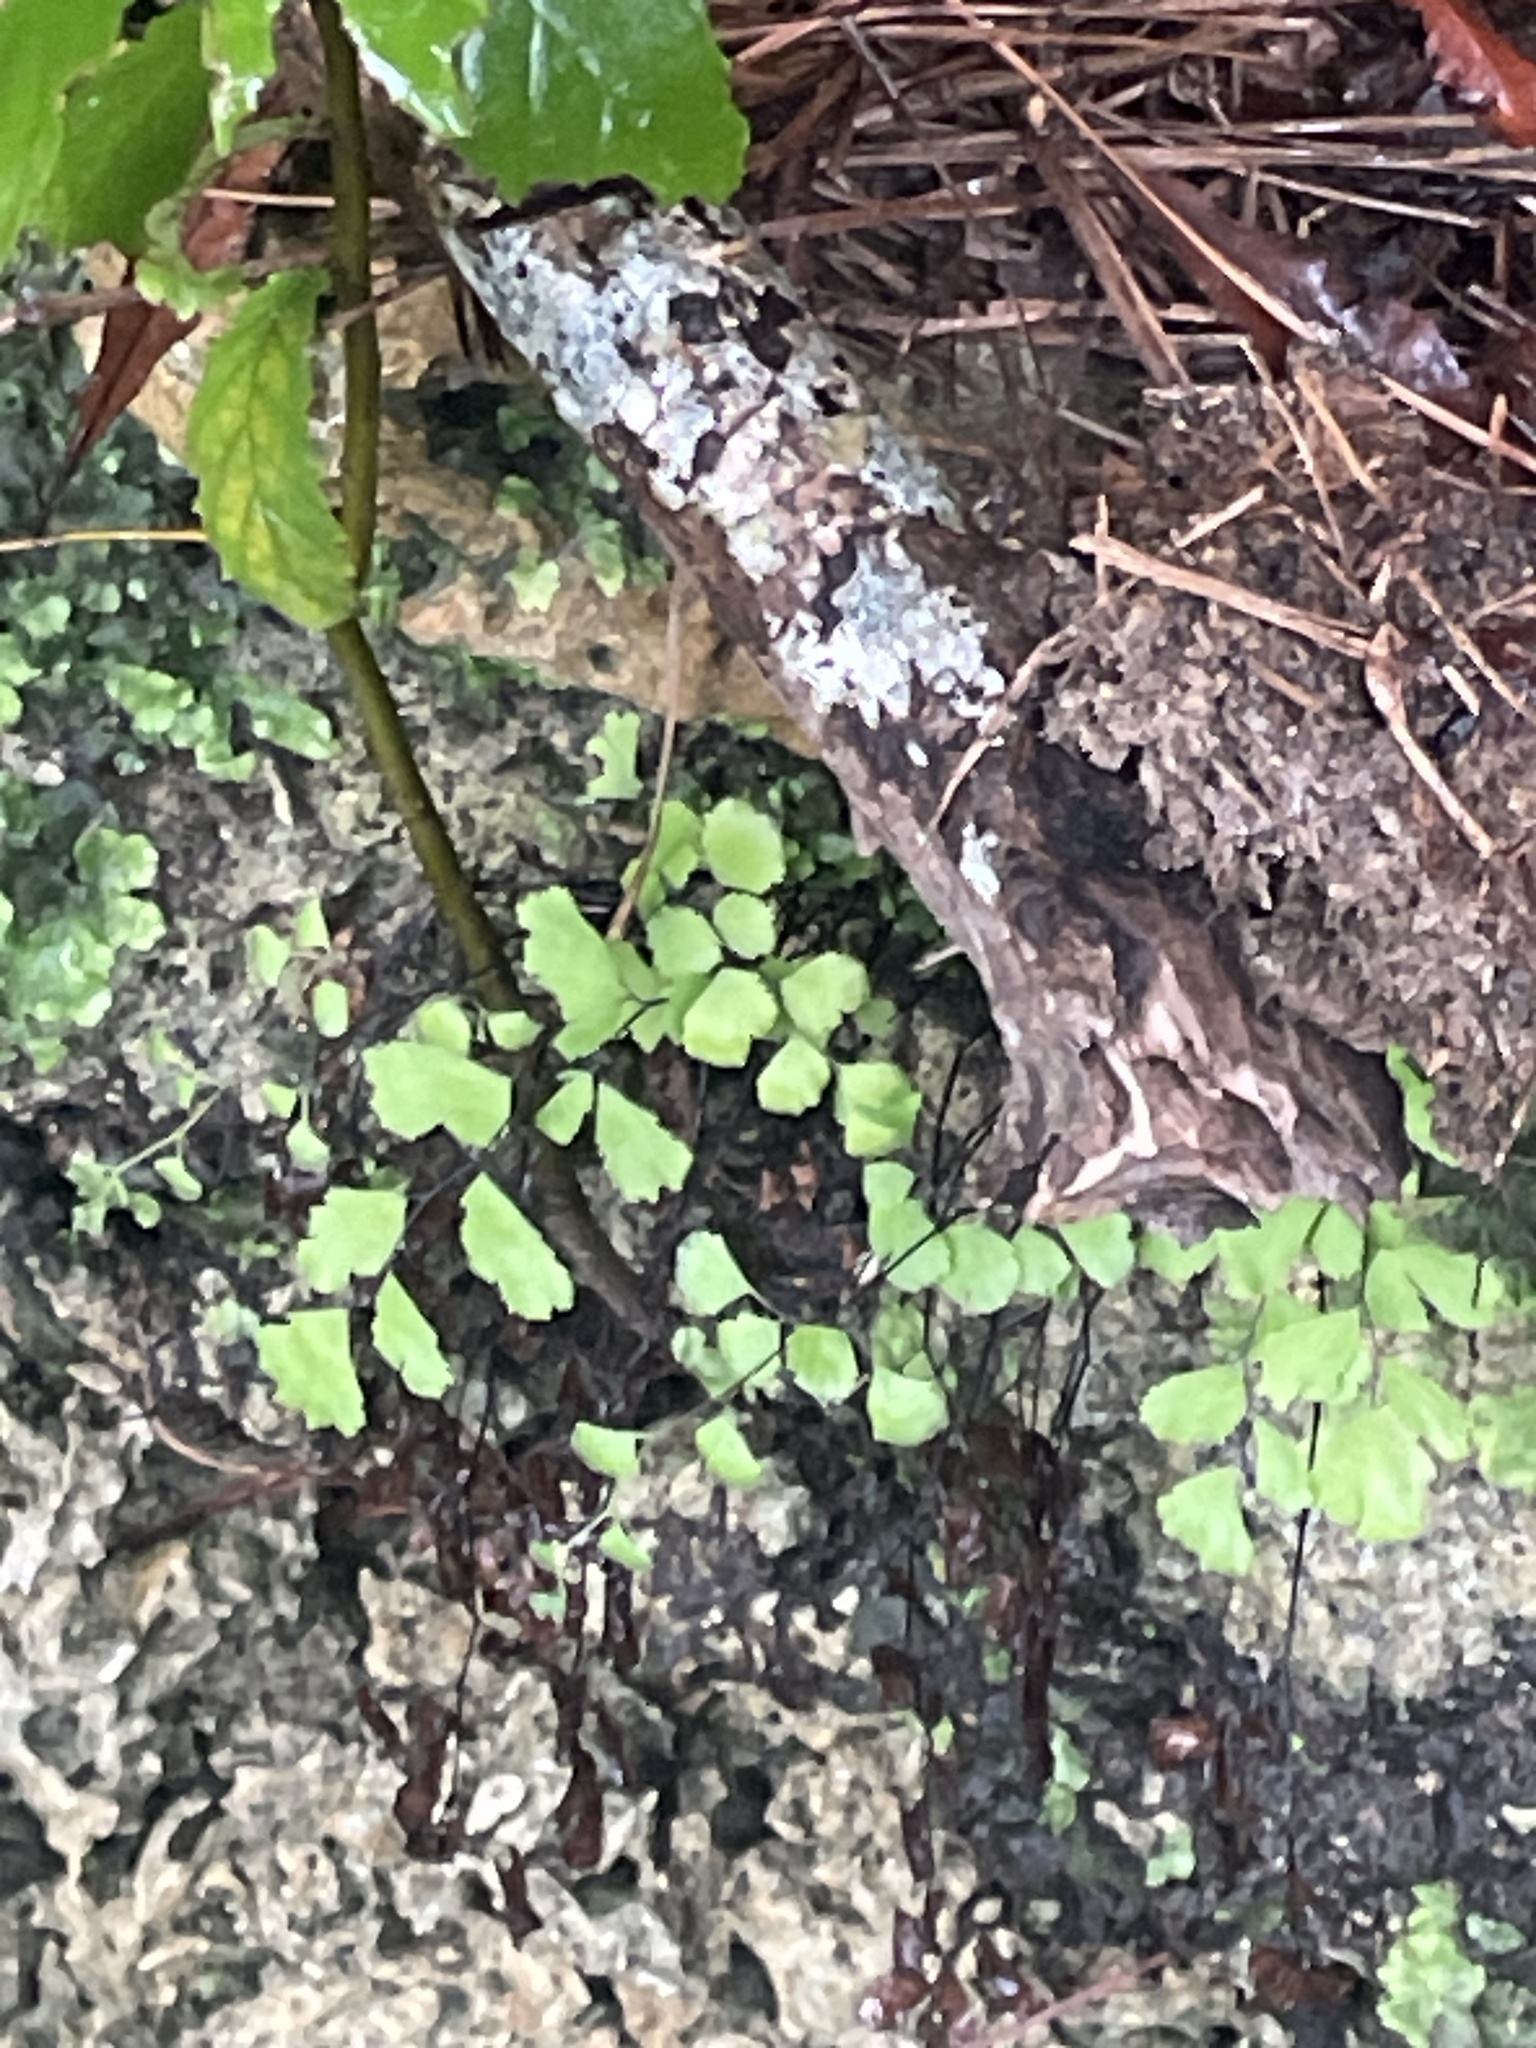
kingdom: Plantae
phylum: Tracheophyta
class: Polypodiopsida
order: Polypodiales
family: Pteridaceae
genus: Adiantum
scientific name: Adiantum capillus-veneris
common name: Maidenhair fern
